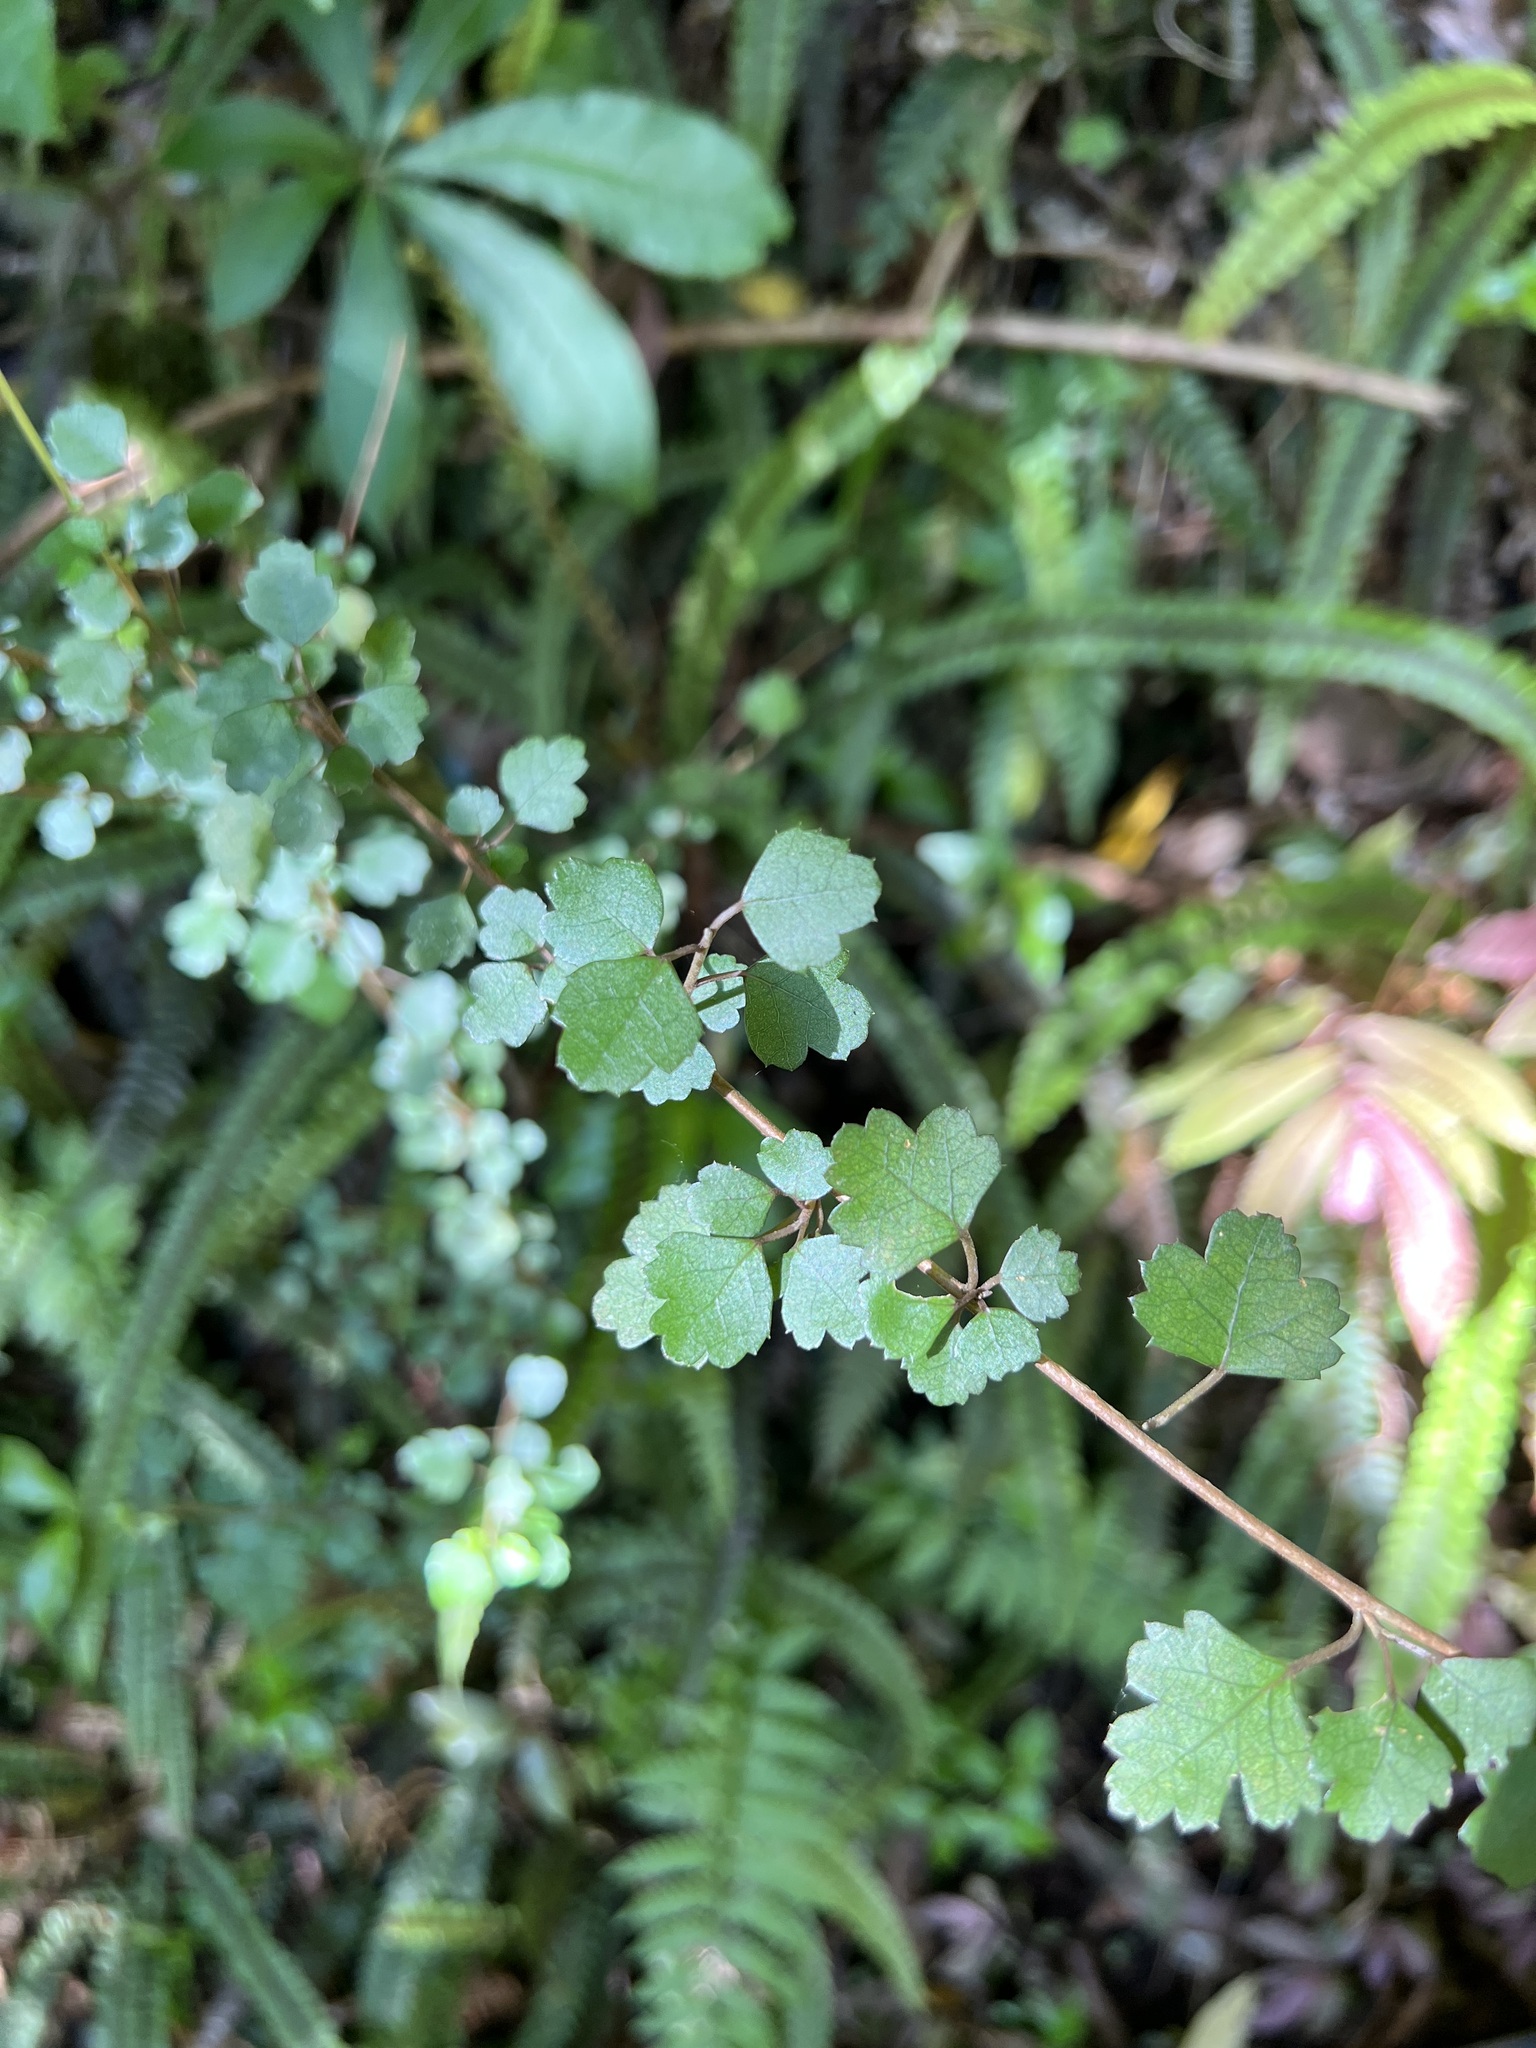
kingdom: Plantae
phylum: Tracheophyta
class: Magnoliopsida
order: Malvales
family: Malvaceae
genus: Hoheria
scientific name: Hoheria sexstylosa
